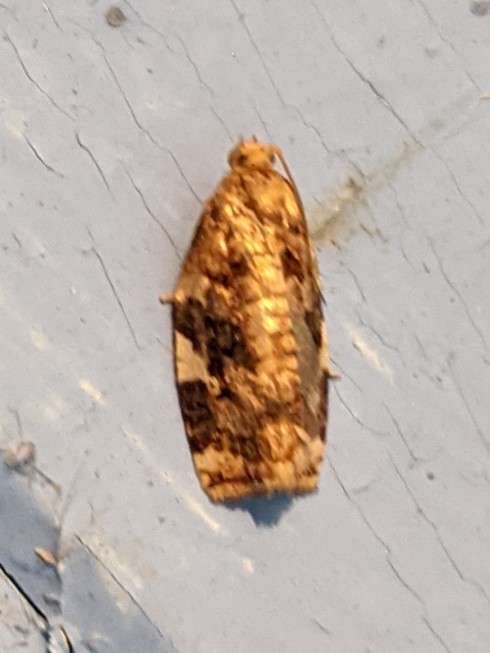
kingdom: Animalia
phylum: Arthropoda
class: Insecta
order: Lepidoptera
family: Tortricidae
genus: Archips
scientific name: Archips argyrospila
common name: Fruit-tree leafroller moth
